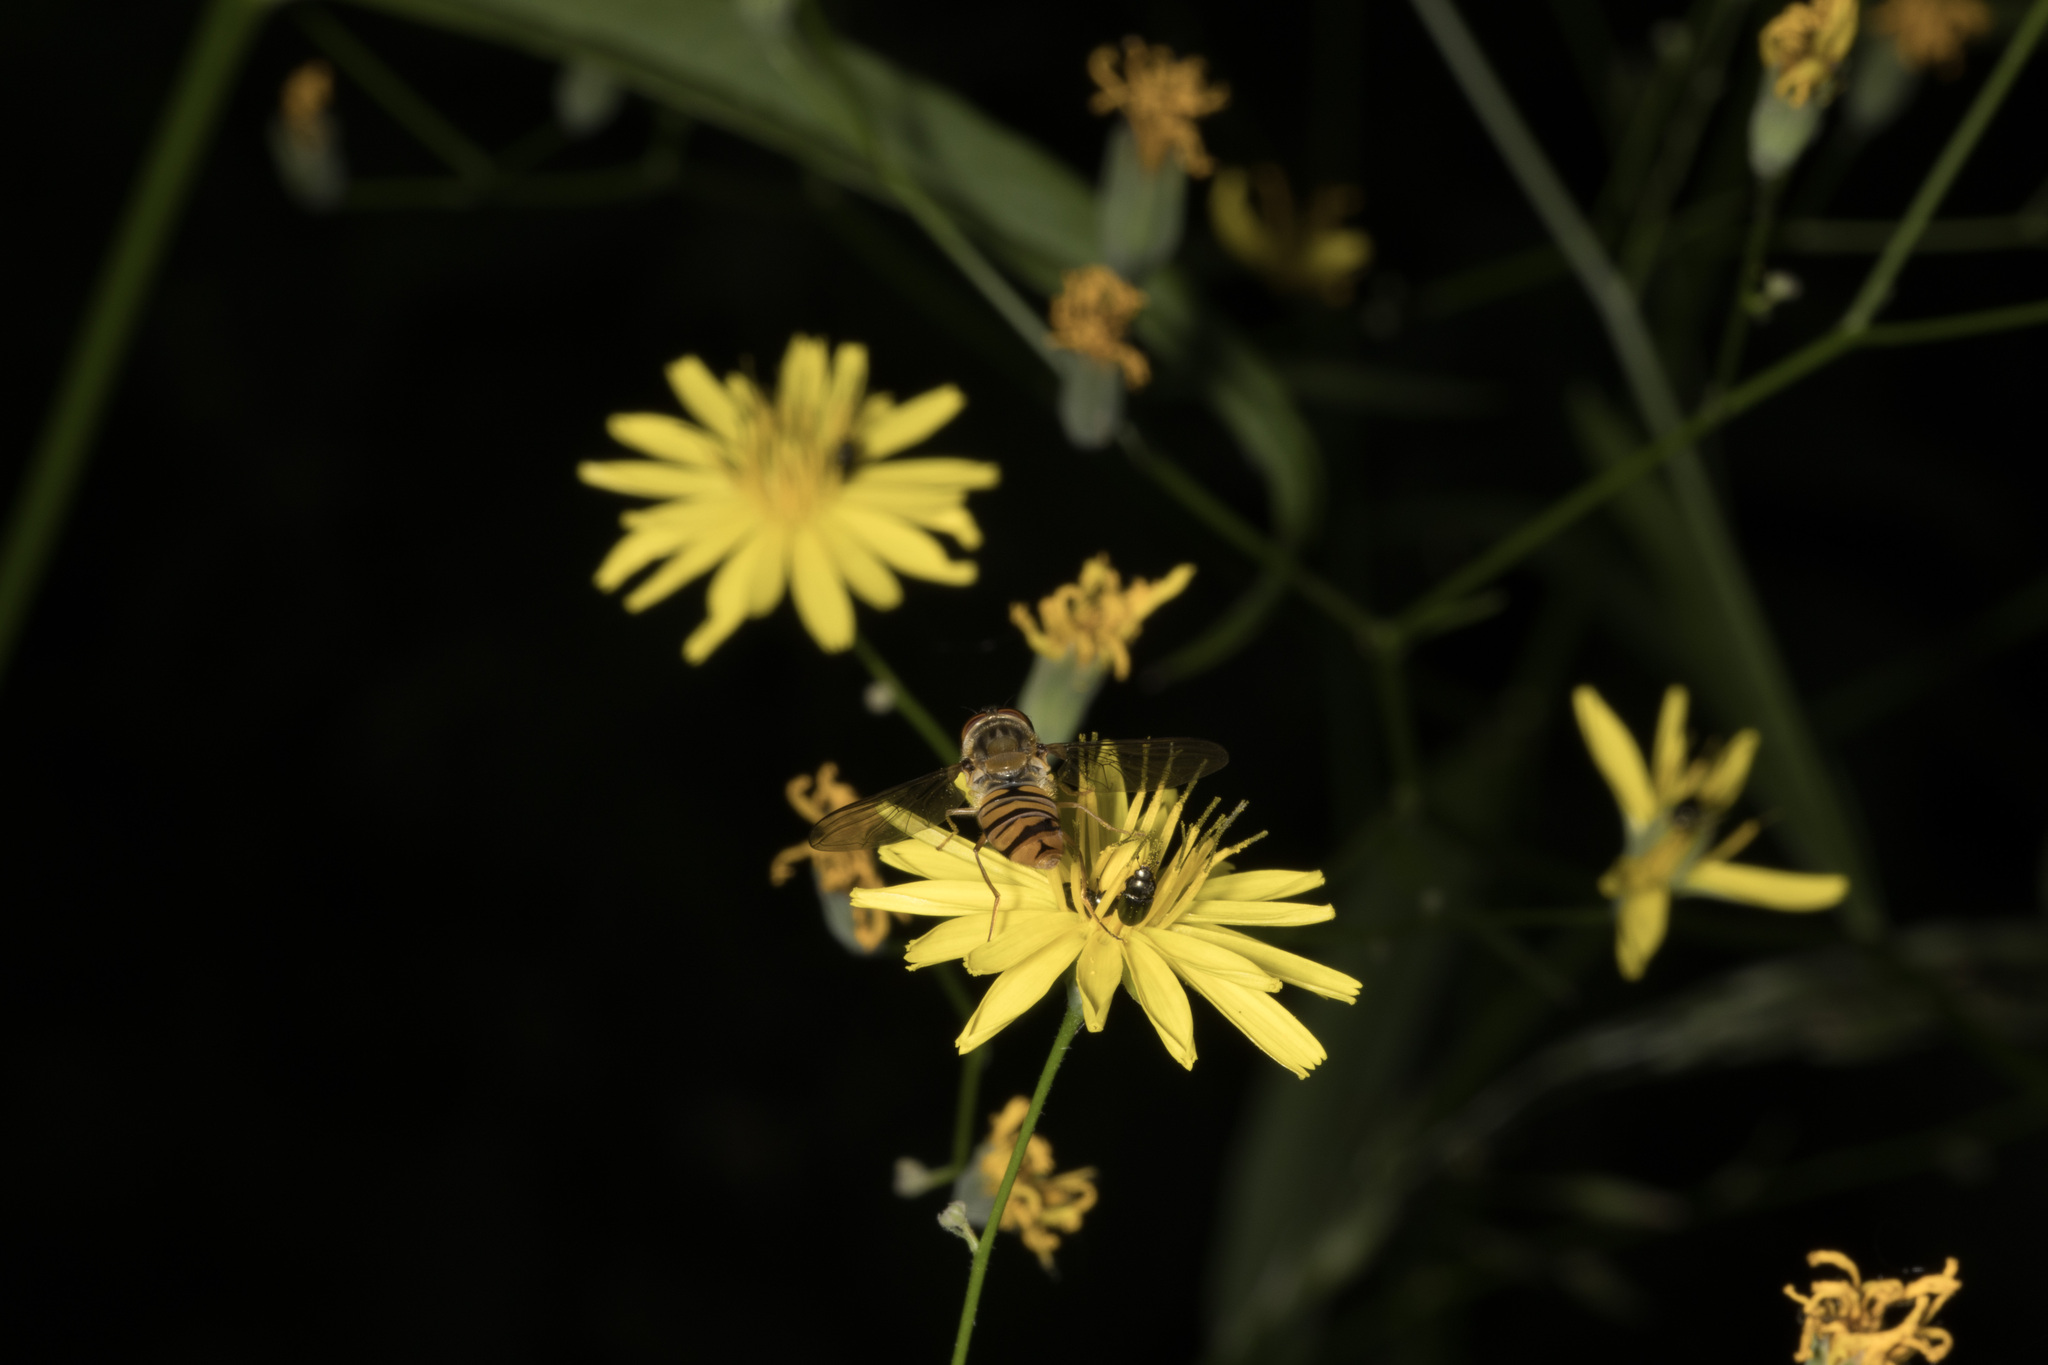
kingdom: Animalia
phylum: Arthropoda
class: Insecta
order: Diptera
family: Syrphidae
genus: Episyrphus
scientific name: Episyrphus balteatus
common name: Marmalade hoverfly
